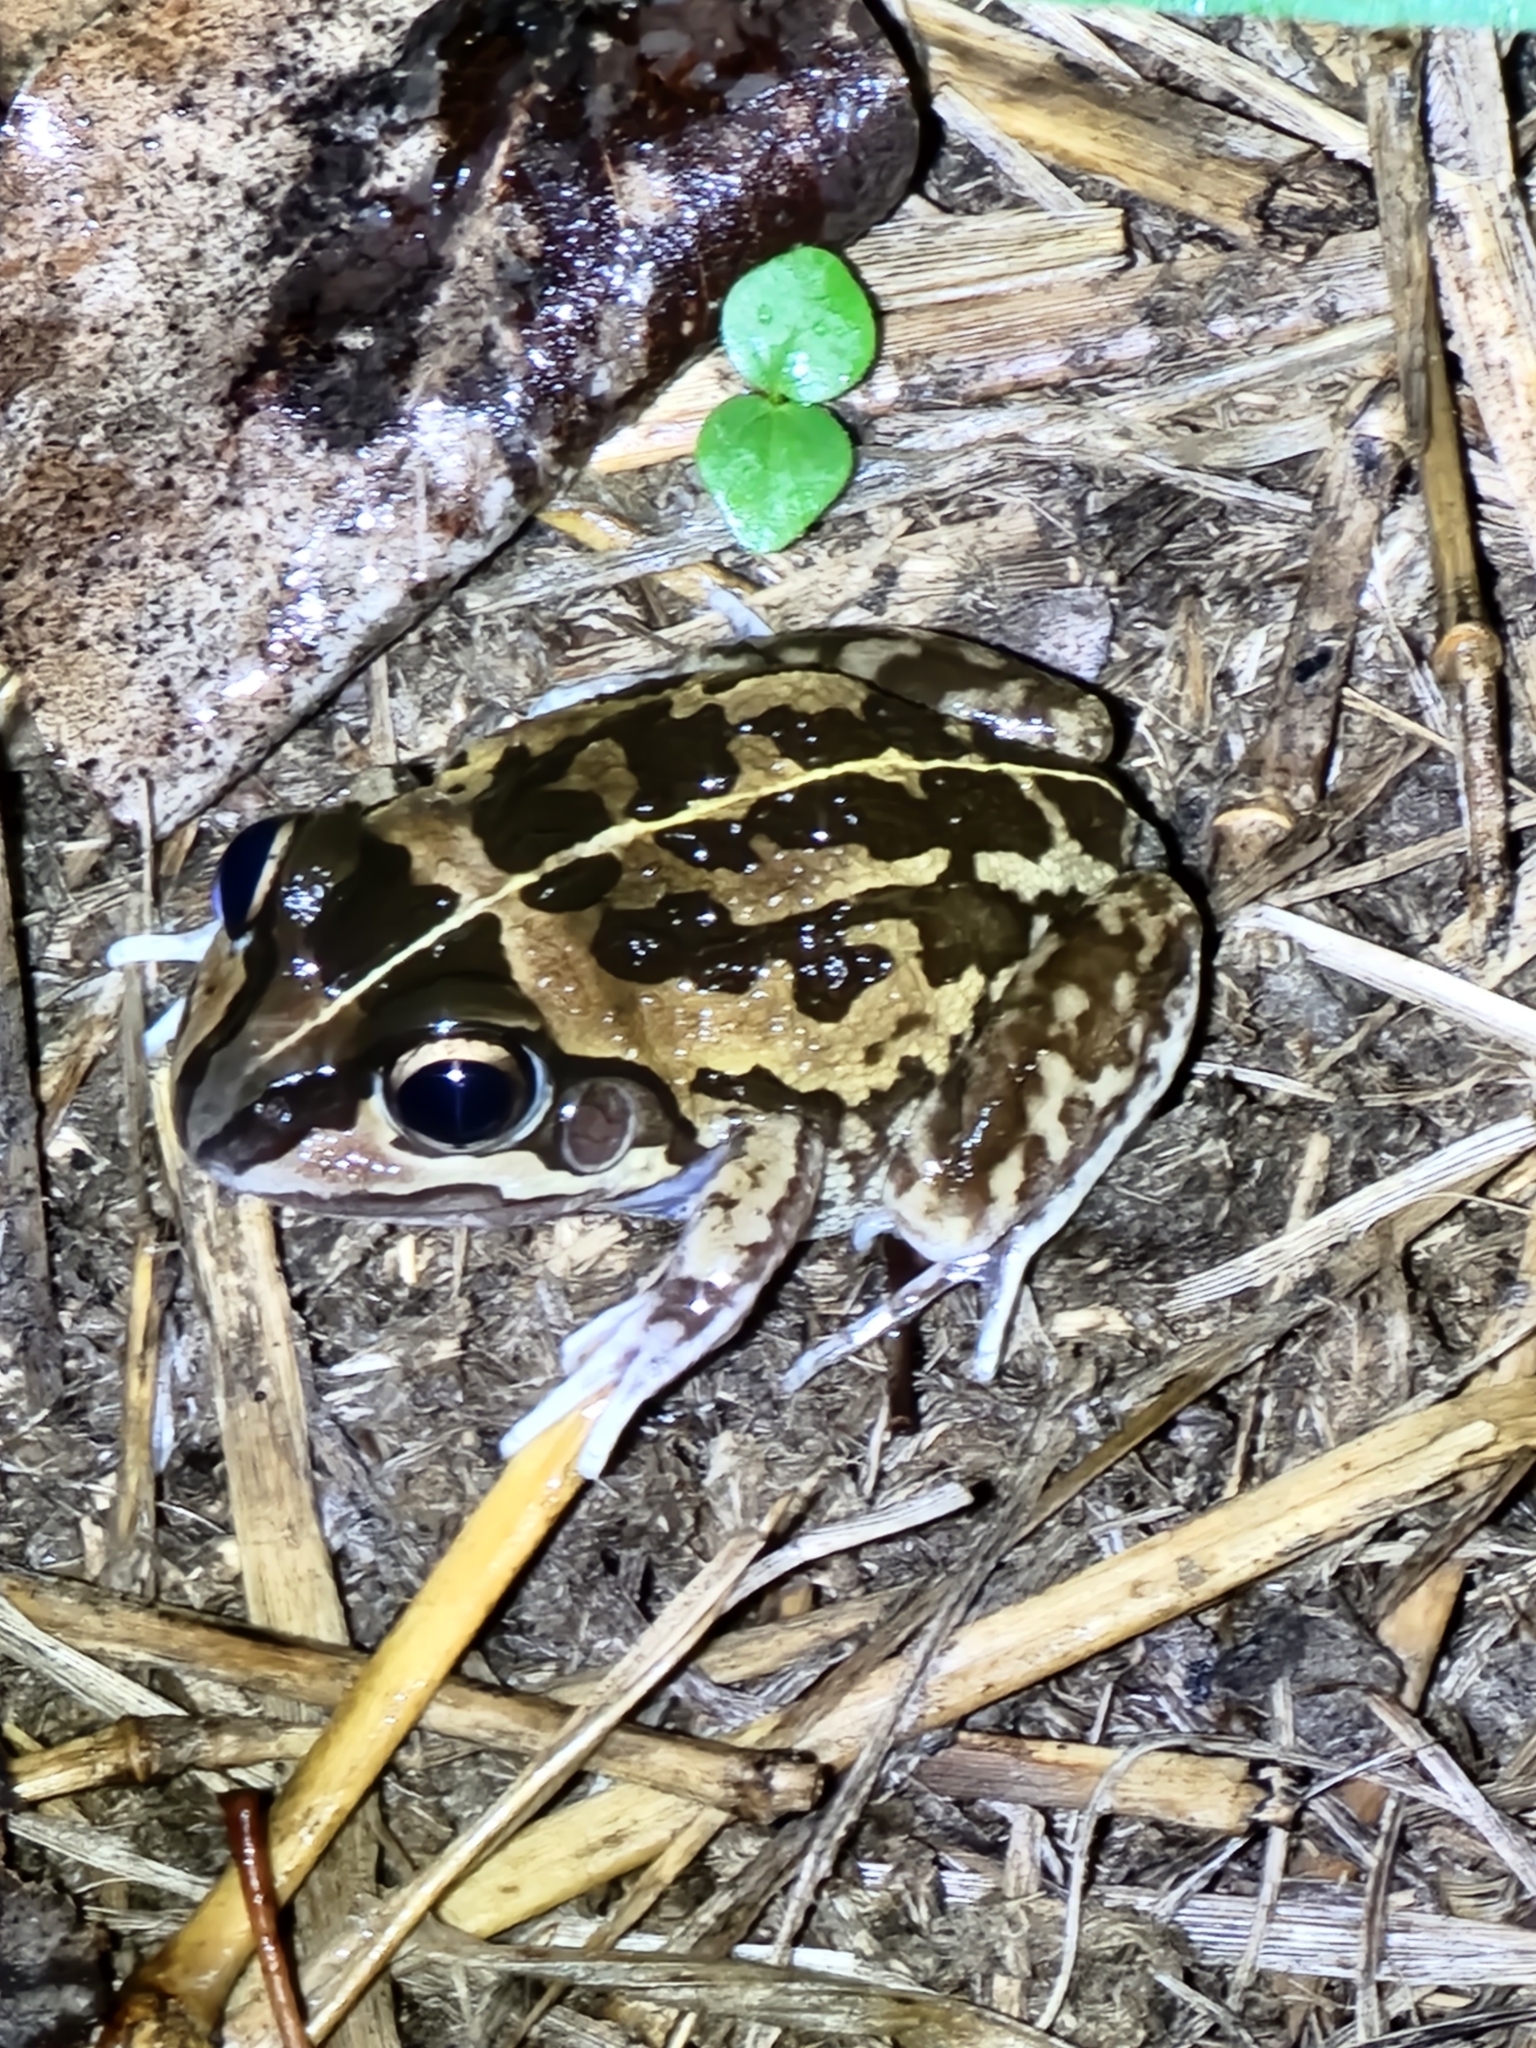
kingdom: Animalia
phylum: Chordata
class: Amphibia
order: Anura
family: Pelodryadidae
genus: Ranoidea
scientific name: Ranoidea brevipes
